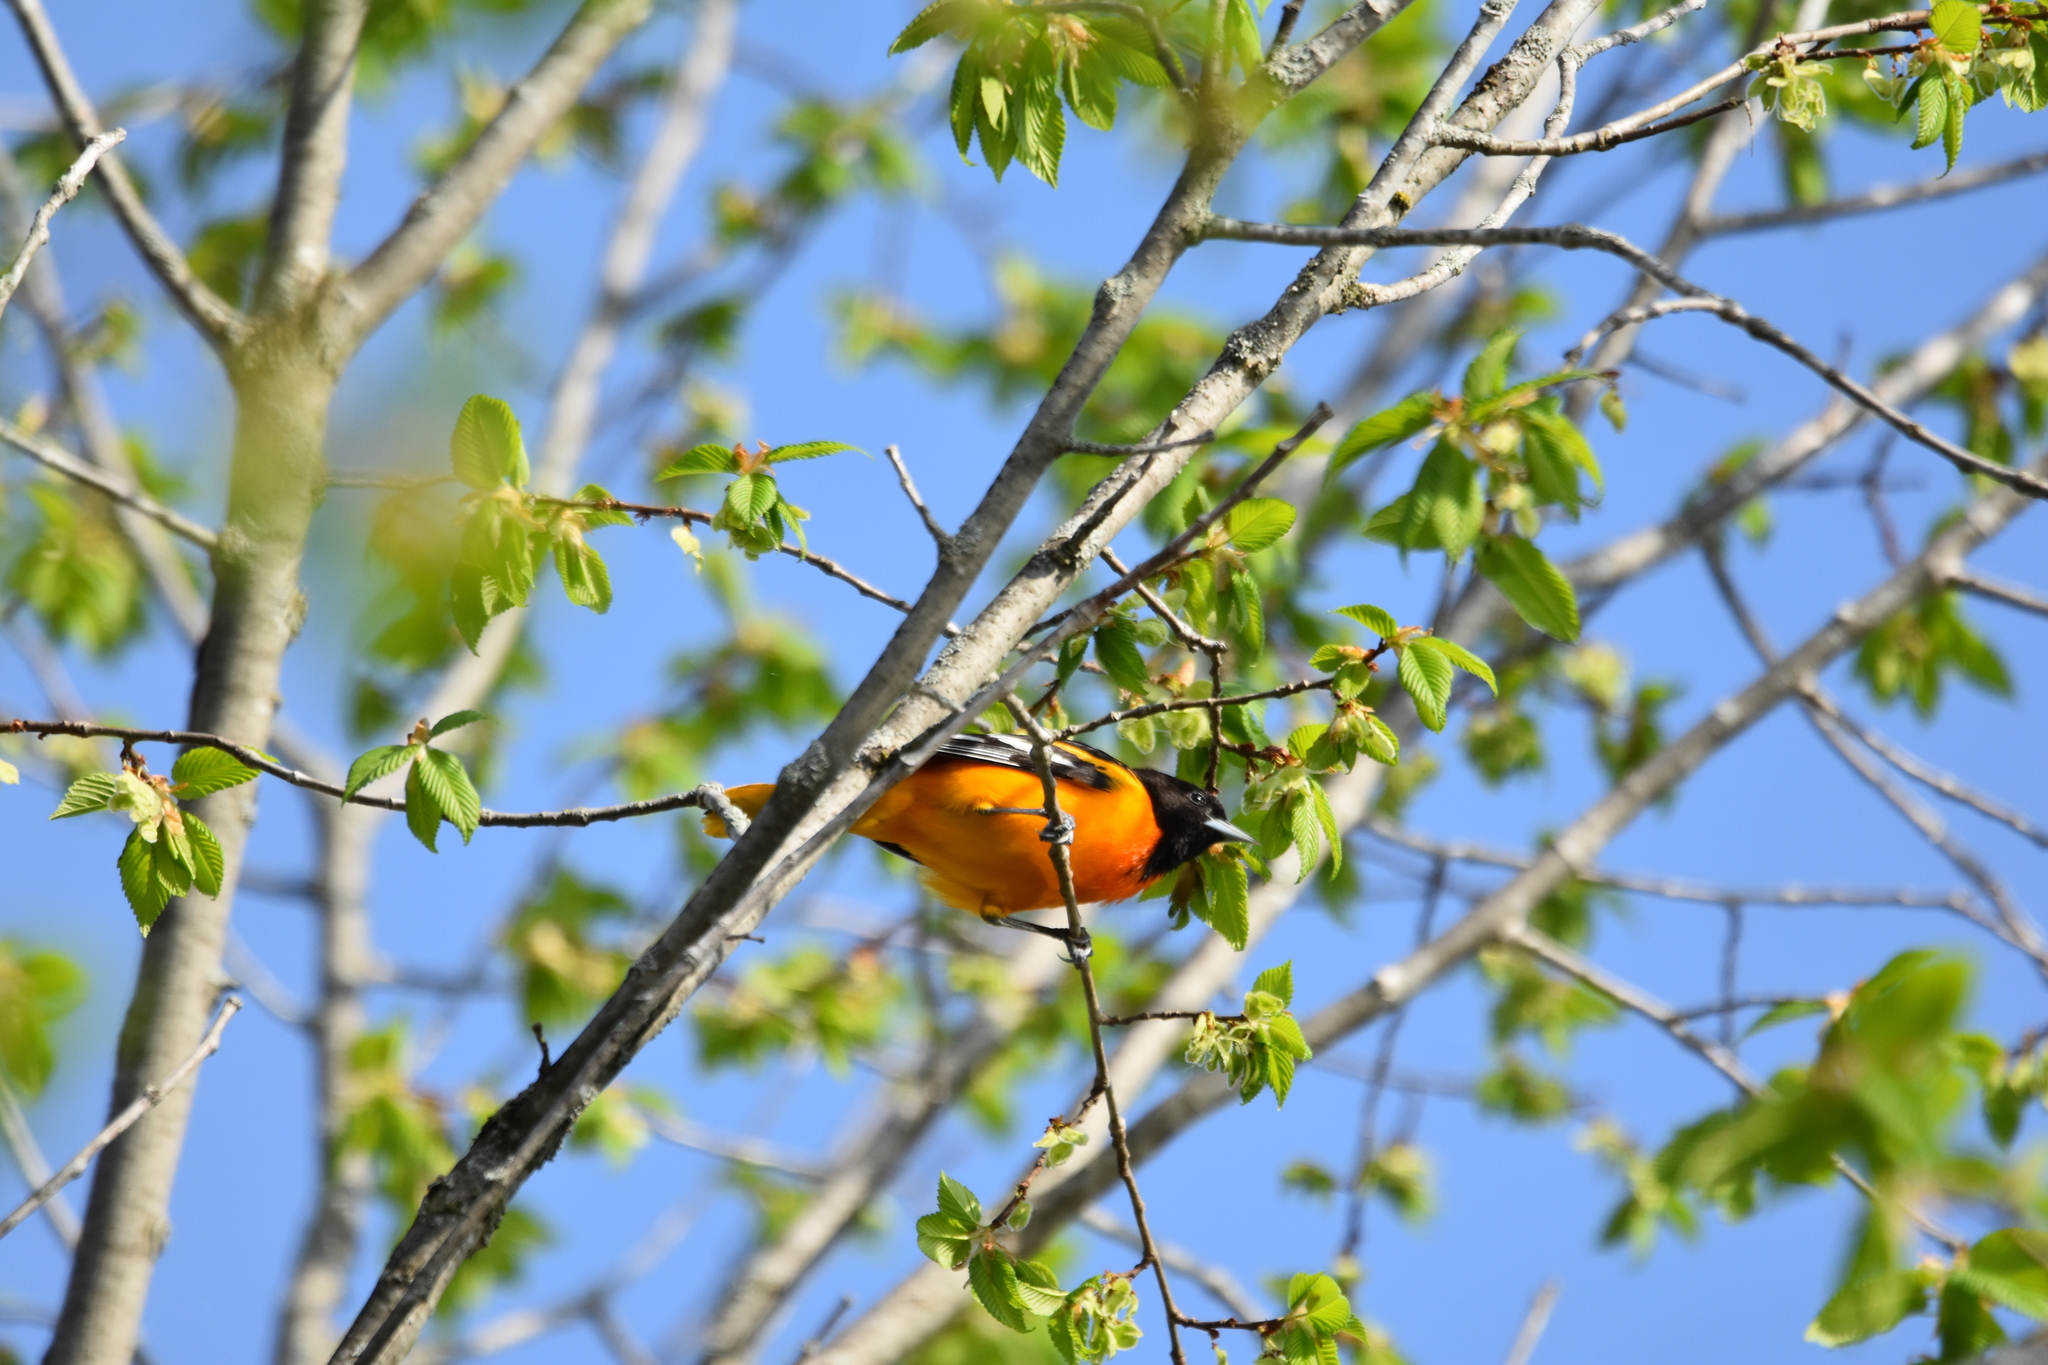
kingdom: Animalia
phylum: Chordata
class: Aves
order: Passeriformes
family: Icteridae
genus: Icterus
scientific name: Icterus galbula
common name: Baltimore oriole
